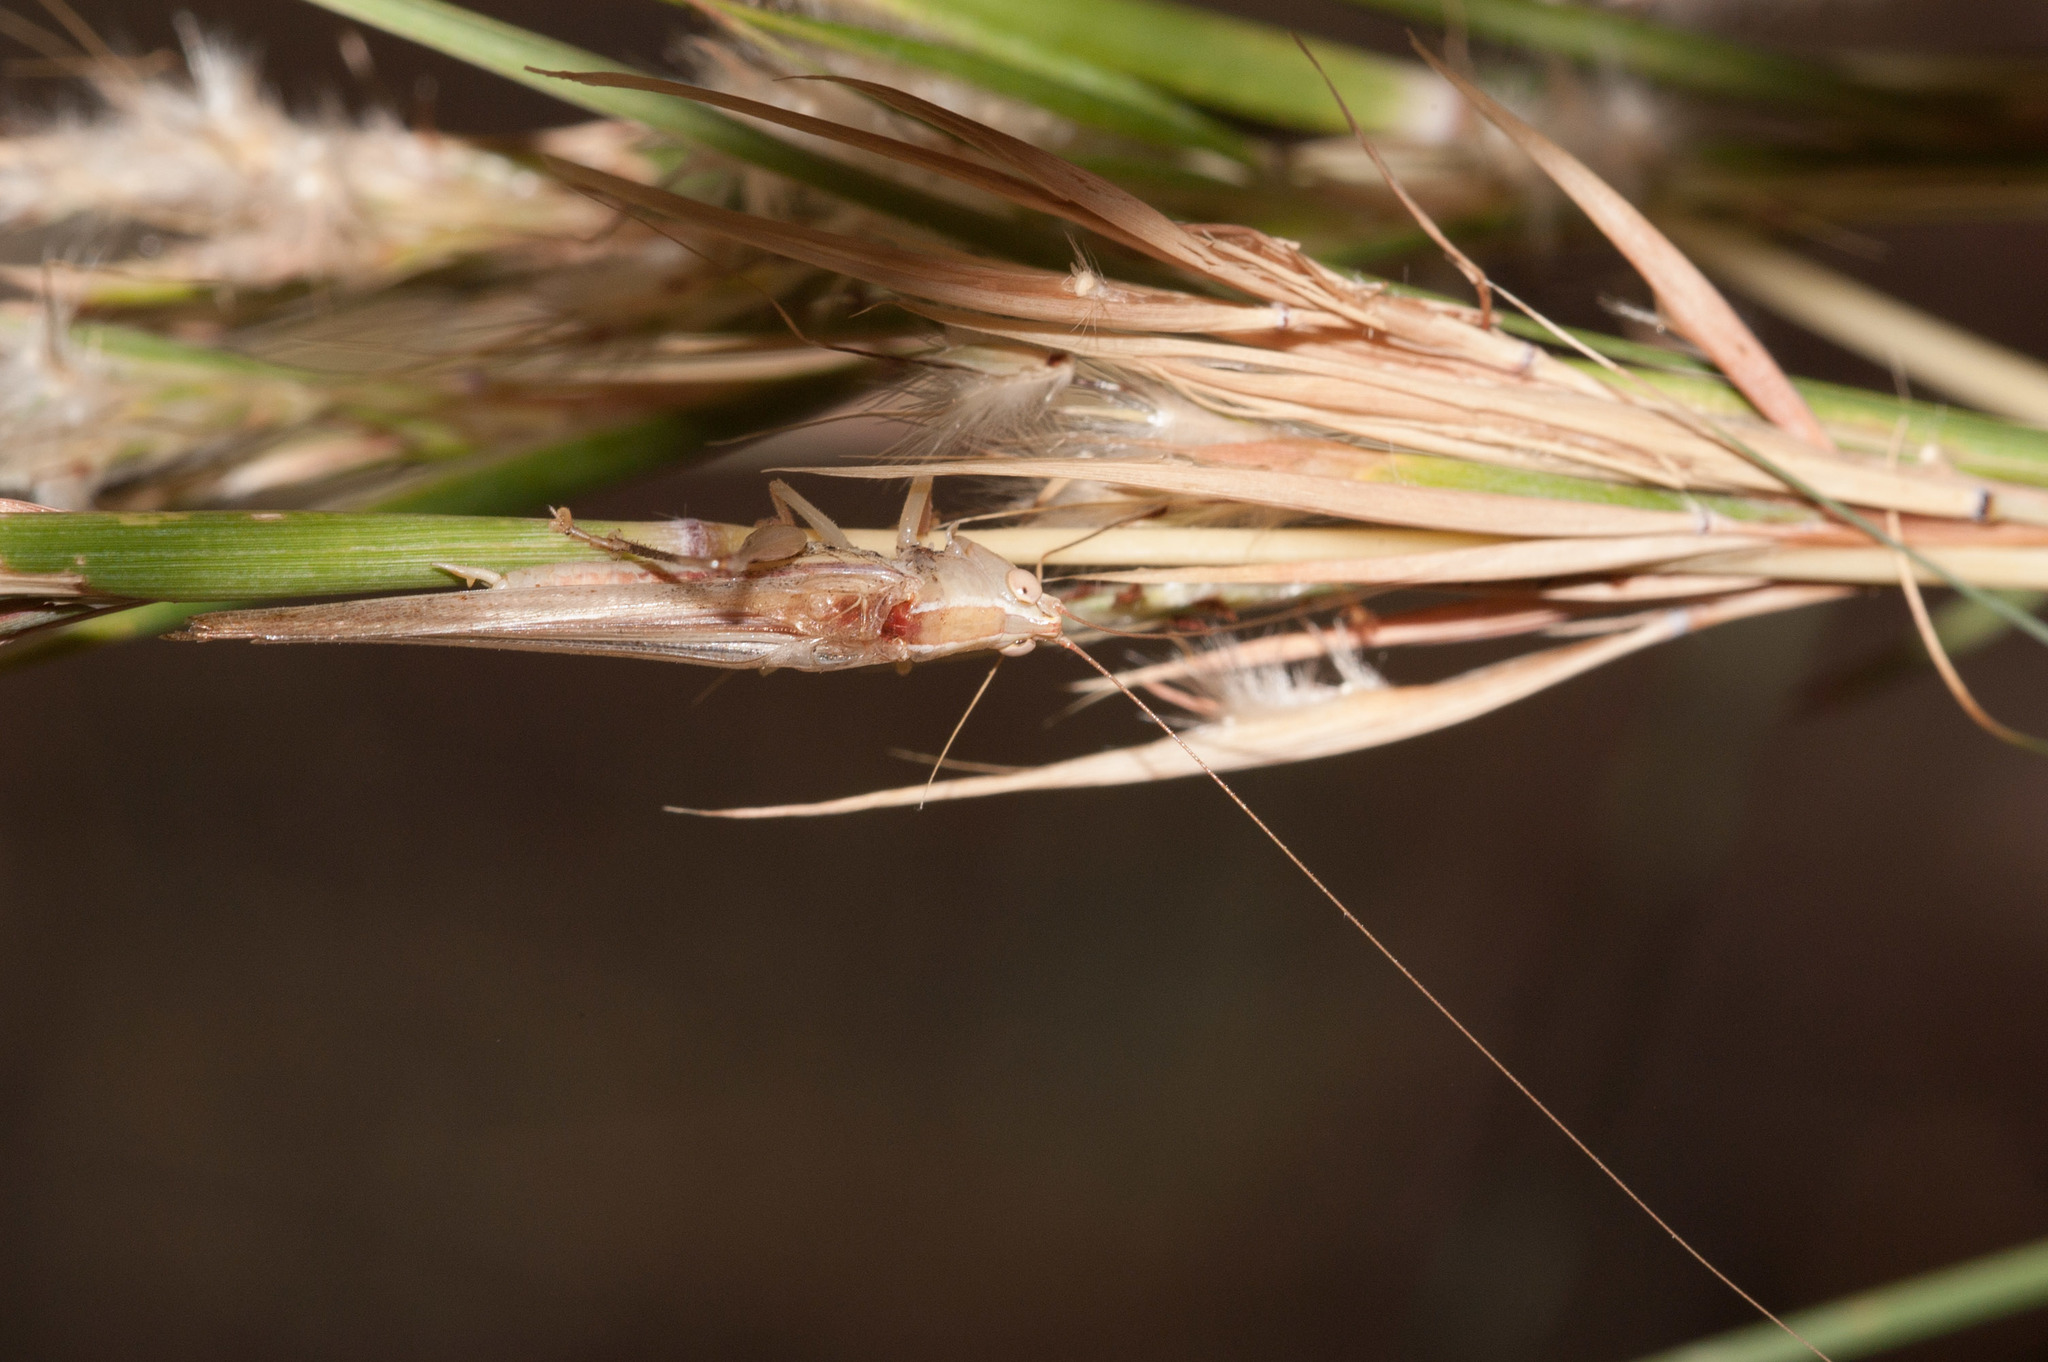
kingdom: Animalia
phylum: Arthropoda
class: Insecta
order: Orthoptera
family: Tettigoniidae
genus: Conocephalus
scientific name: Conocephalus upoluensis
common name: Upolu meadow katydid
